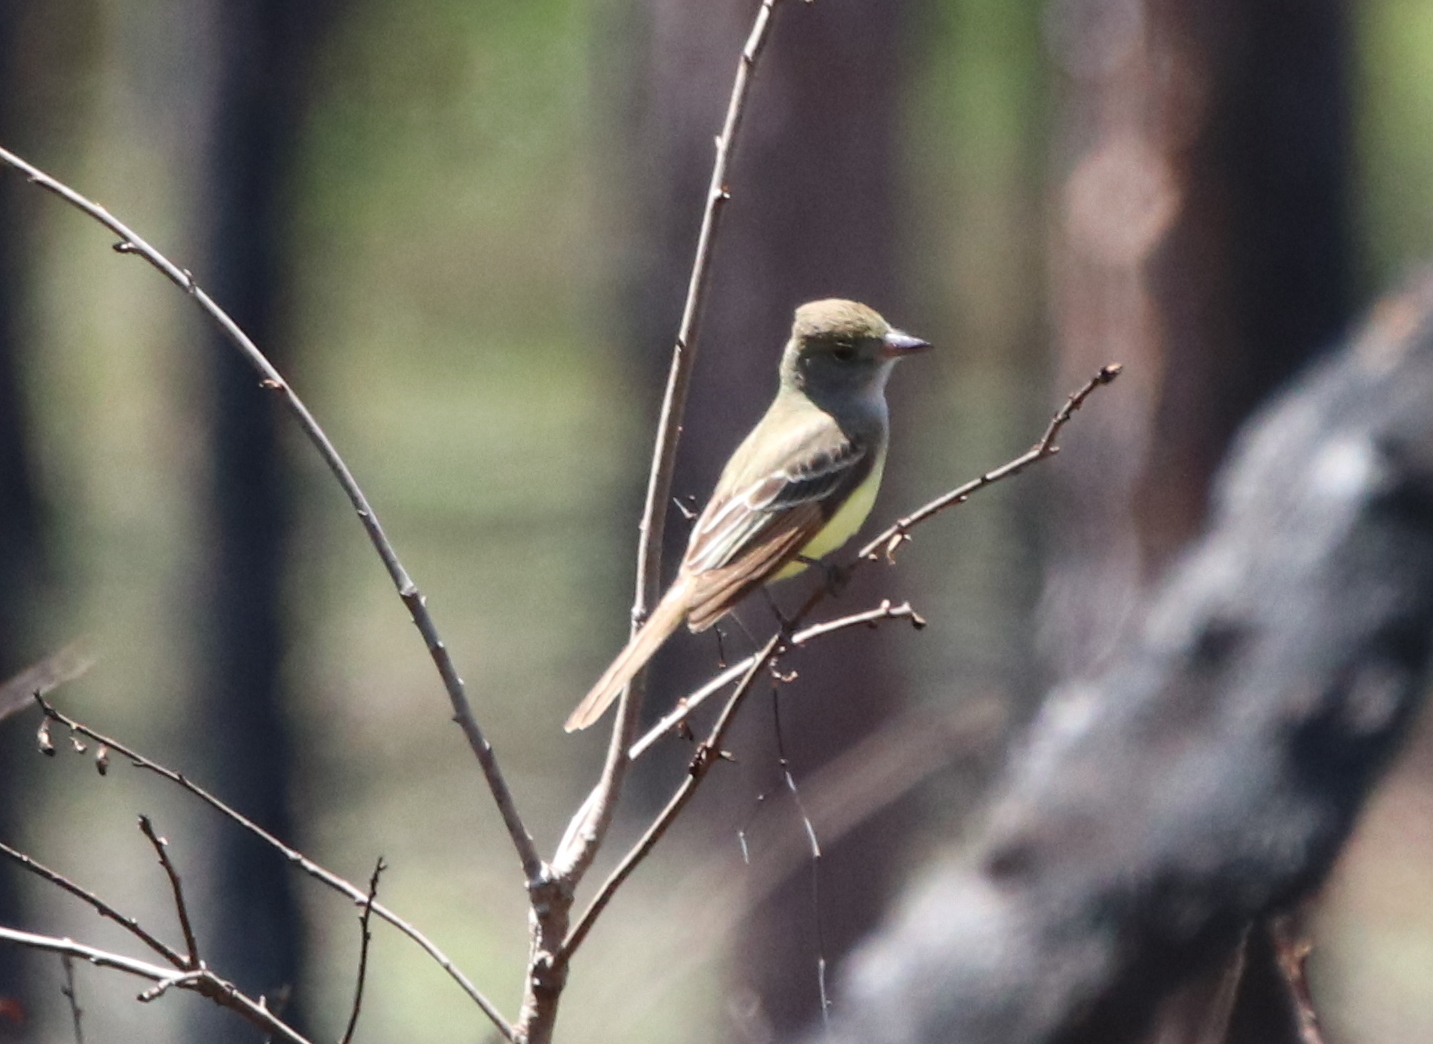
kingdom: Animalia
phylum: Chordata
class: Aves
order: Passeriformes
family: Tyrannidae
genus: Myiarchus
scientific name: Myiarchus crinitus
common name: Great crested flycatcher
